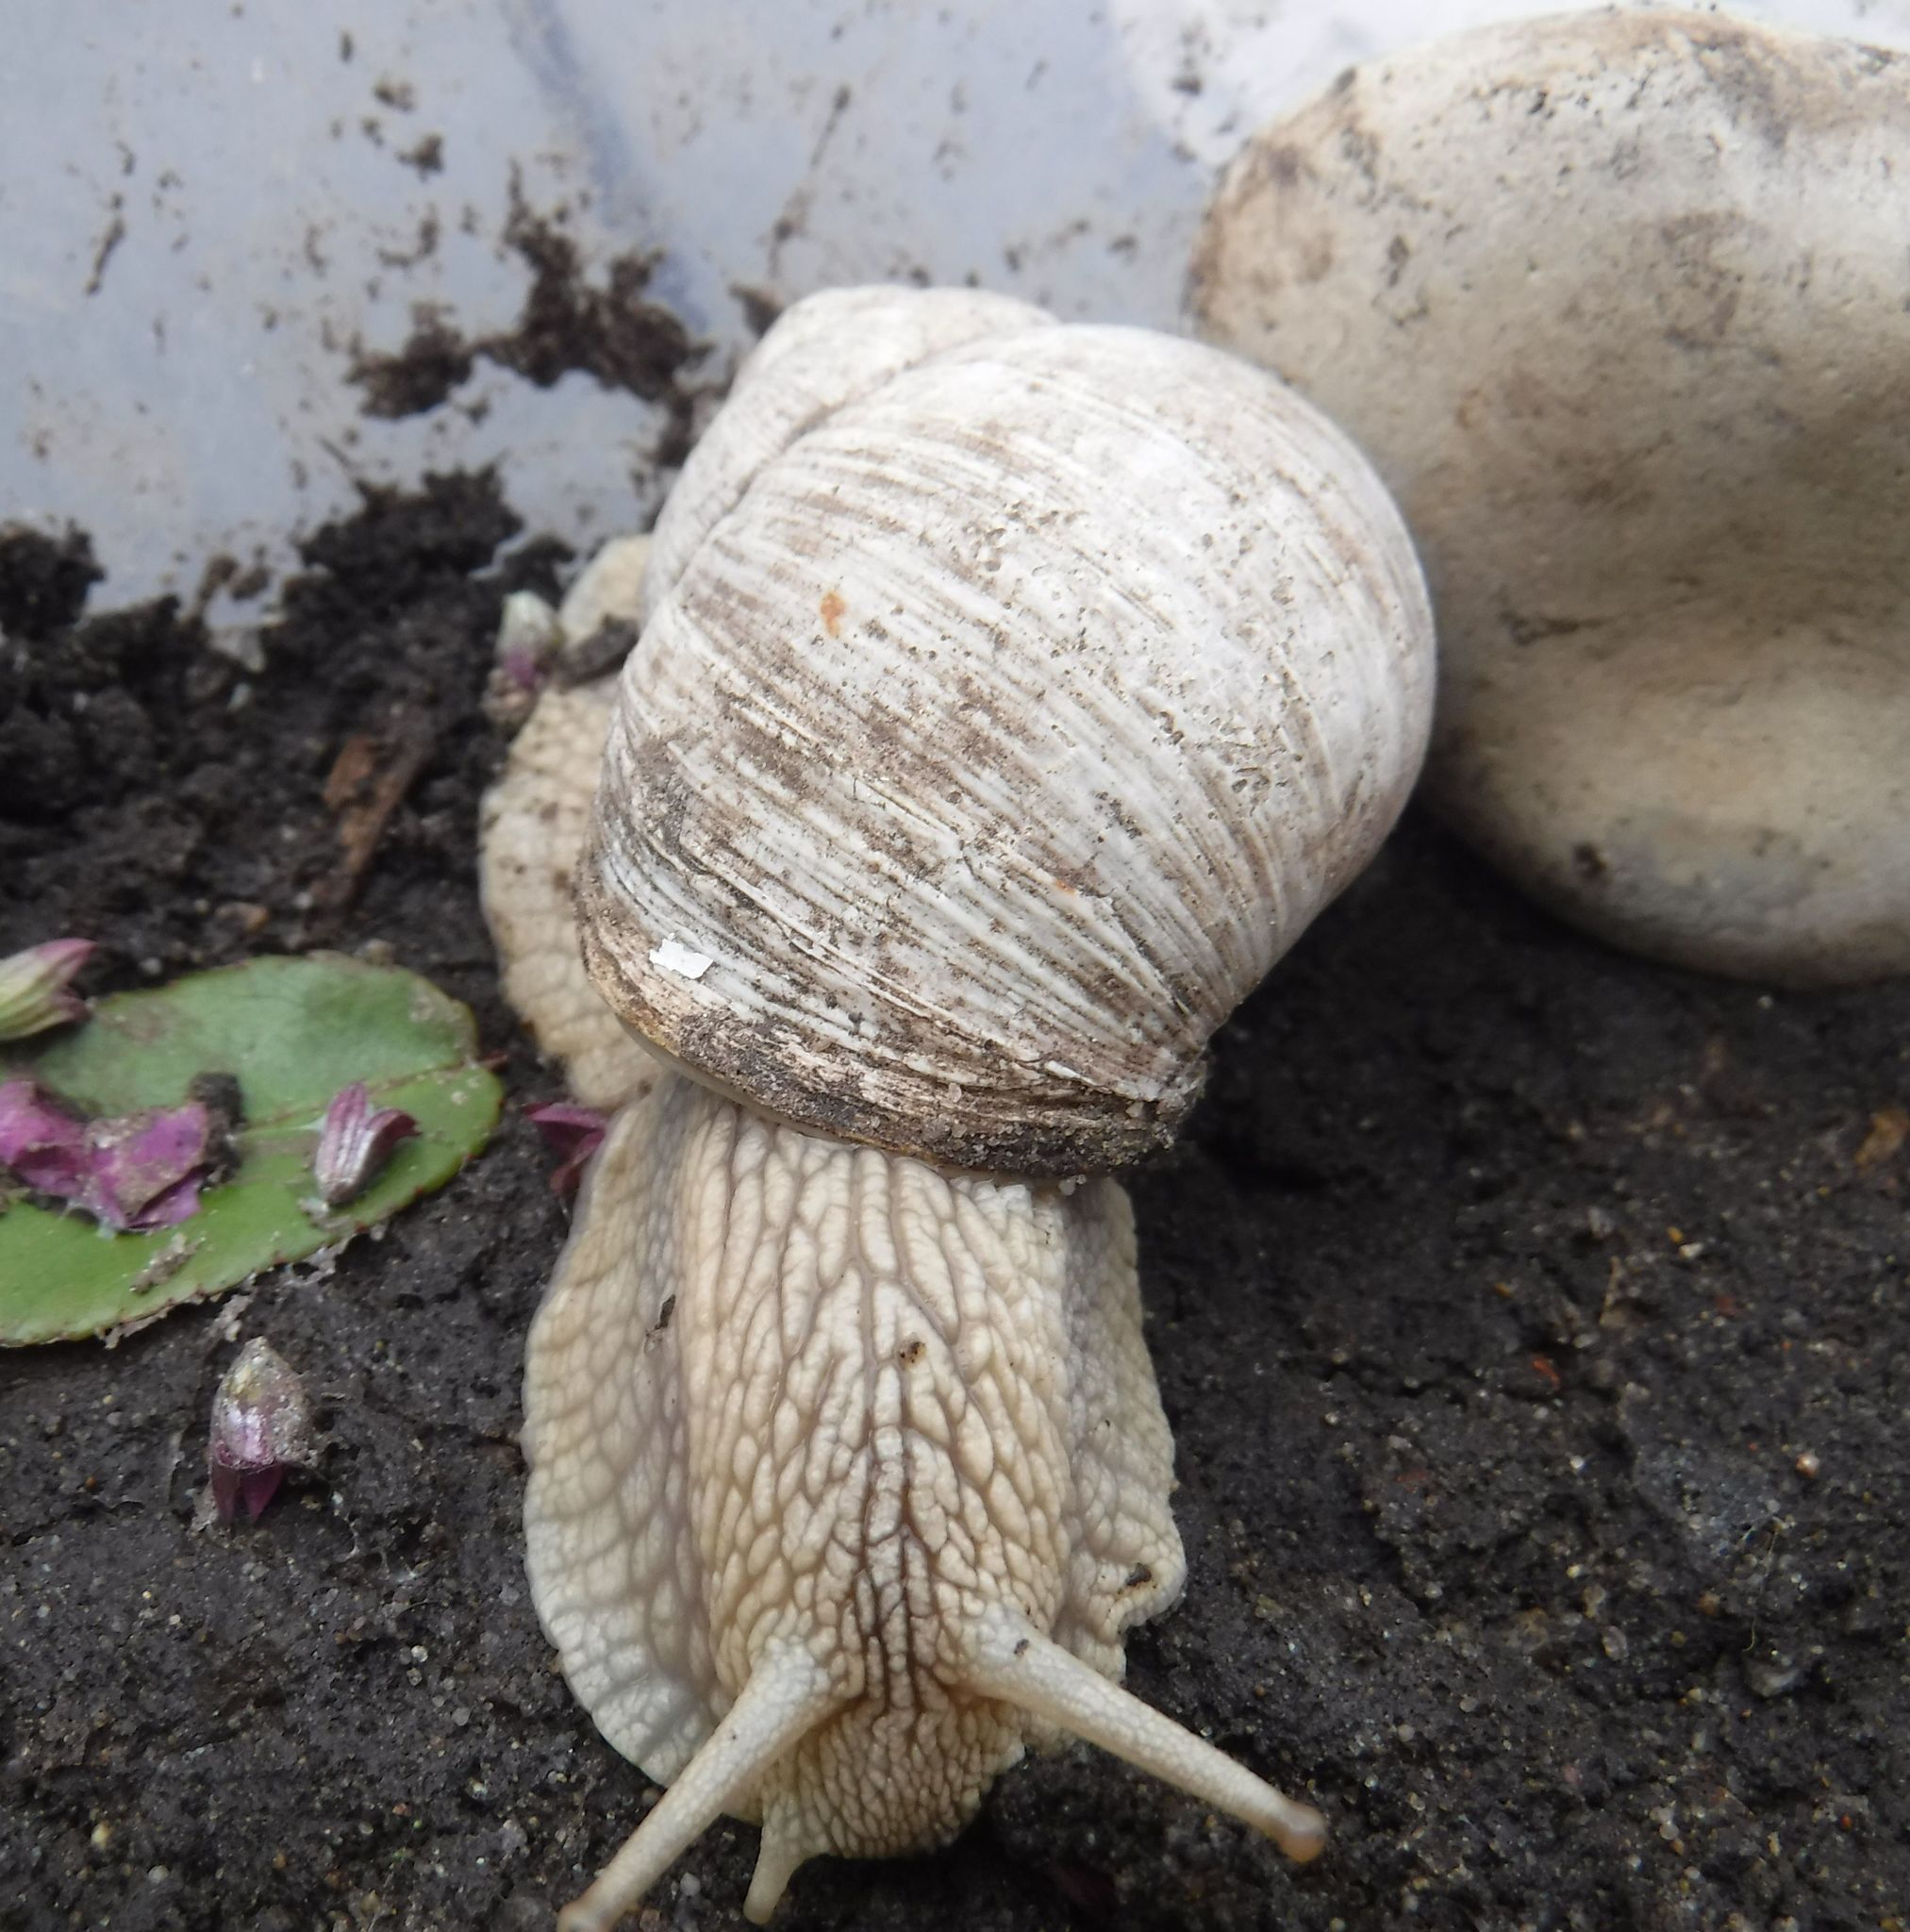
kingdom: Animalia
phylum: Mollusca
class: Gastropoda
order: Stylommatophora
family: Helicidae
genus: Helix
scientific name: Helix pomatia
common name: Roman snail
